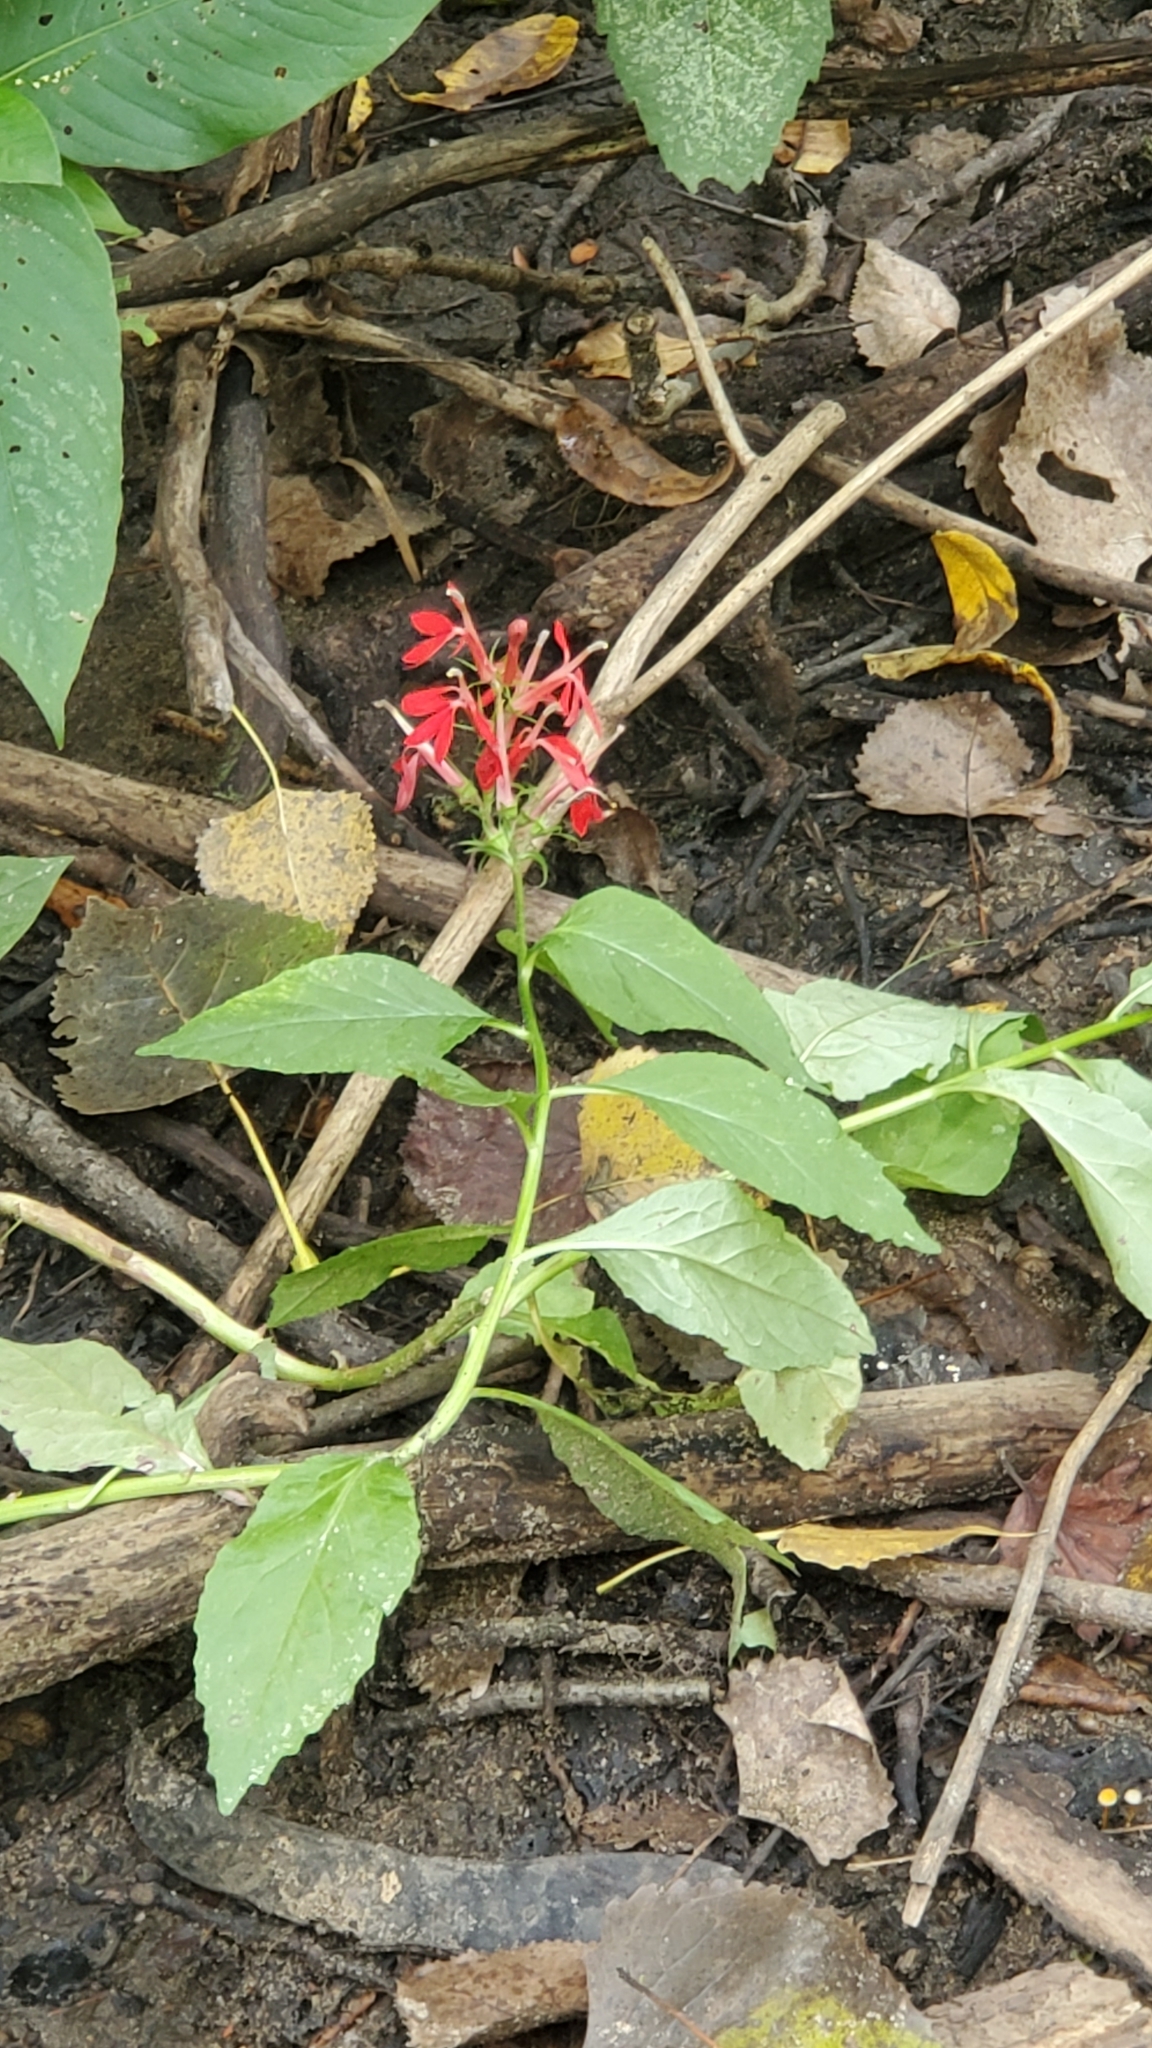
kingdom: Plantae
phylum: Tracheophyta
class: Magnoliopsida
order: Asterales
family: Campanulaceae
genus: Lobelia
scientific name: Lobelia cardinalis
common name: Cardinal flower
